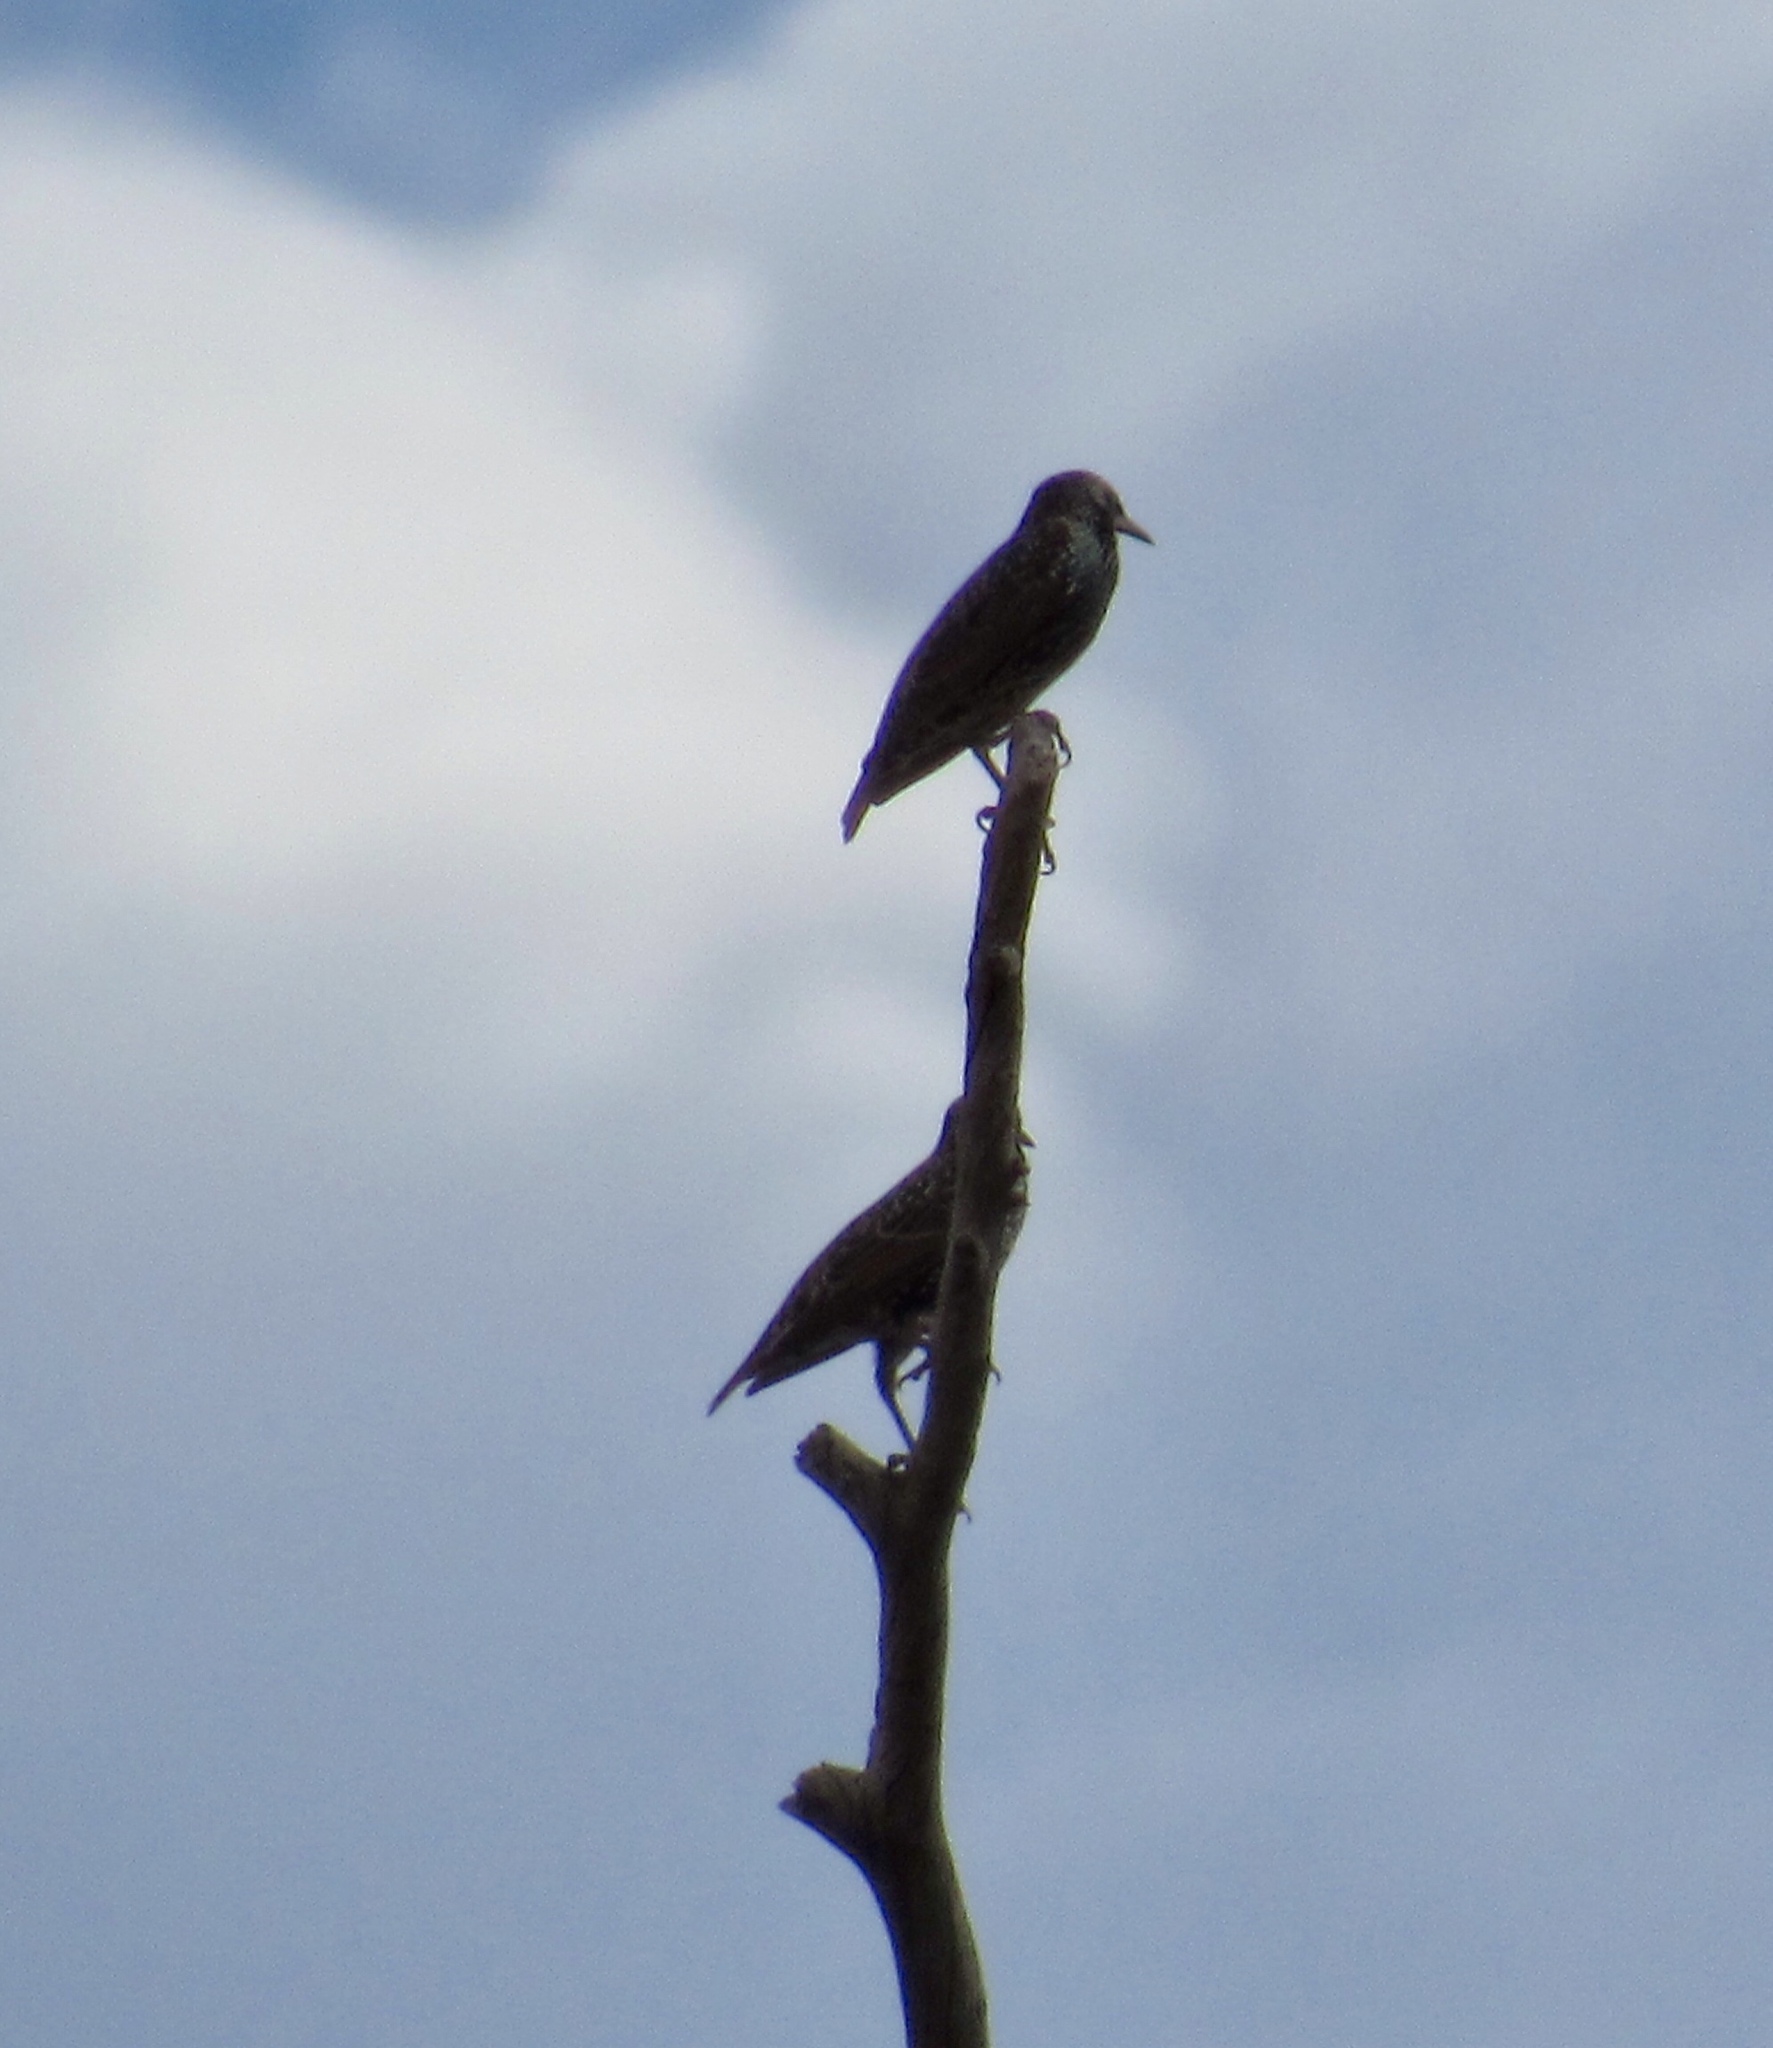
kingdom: Animalia
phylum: Chordata
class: Aves
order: Passeriformes
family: Sturnidae
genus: Sturnus
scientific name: Sturnus vulgaris
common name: Common starling
